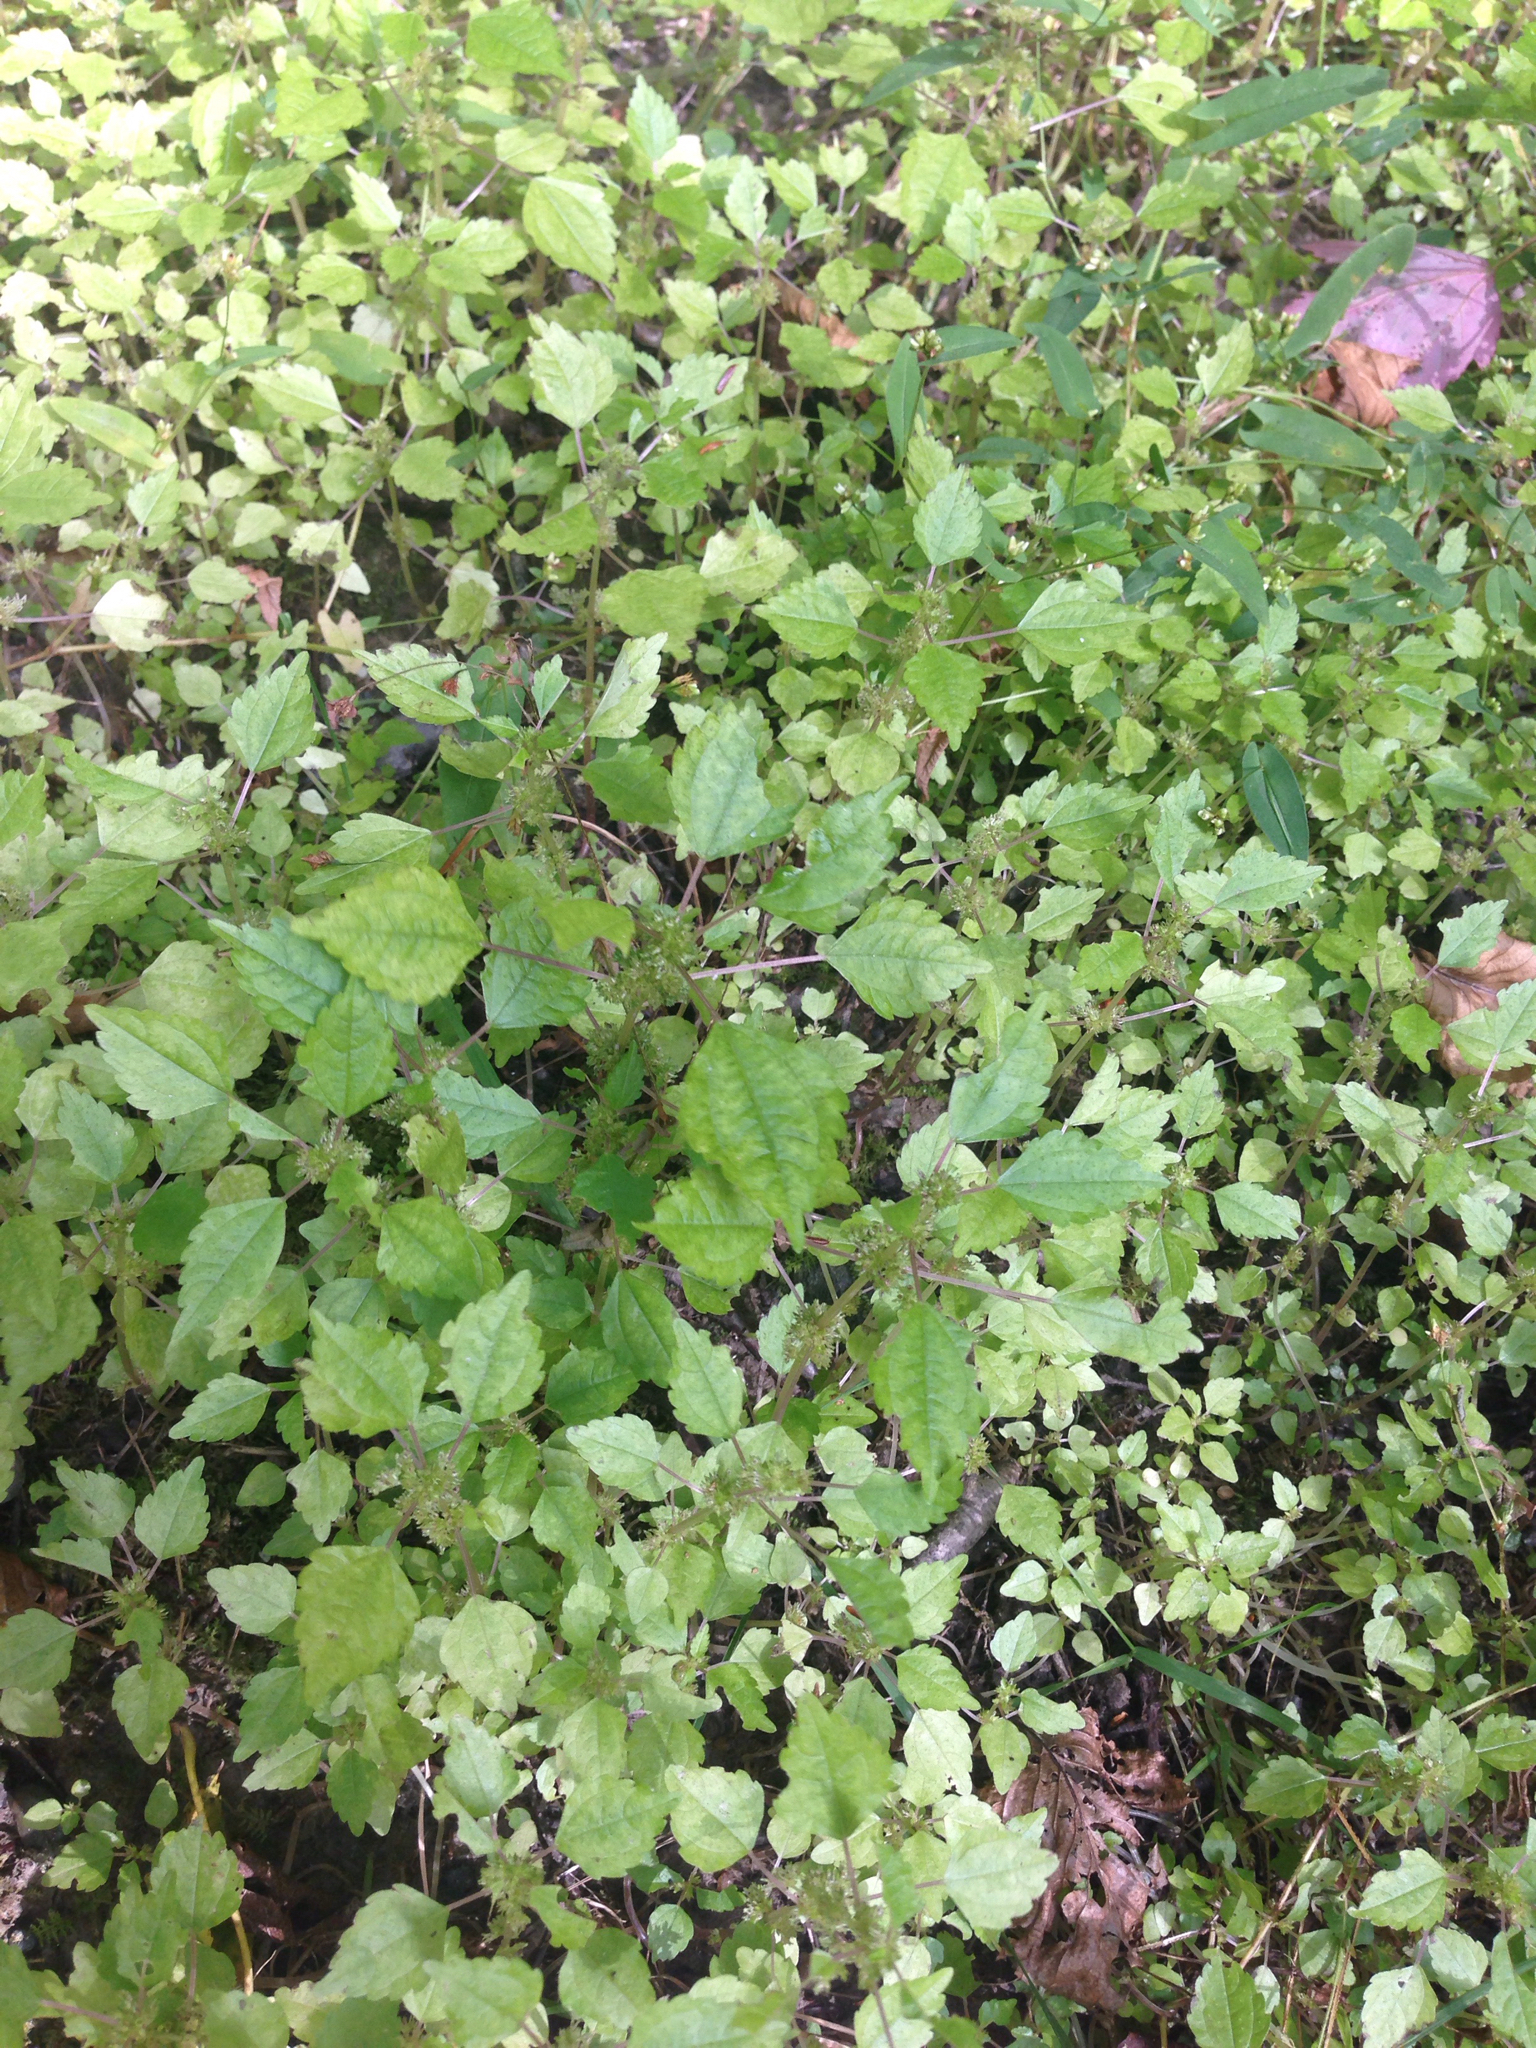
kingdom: Plantae
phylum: Tracheophyta
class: Magnoliopsida
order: Rosales
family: Urticaceae
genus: Pilea
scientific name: Pilea pumila
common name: Clearweed
